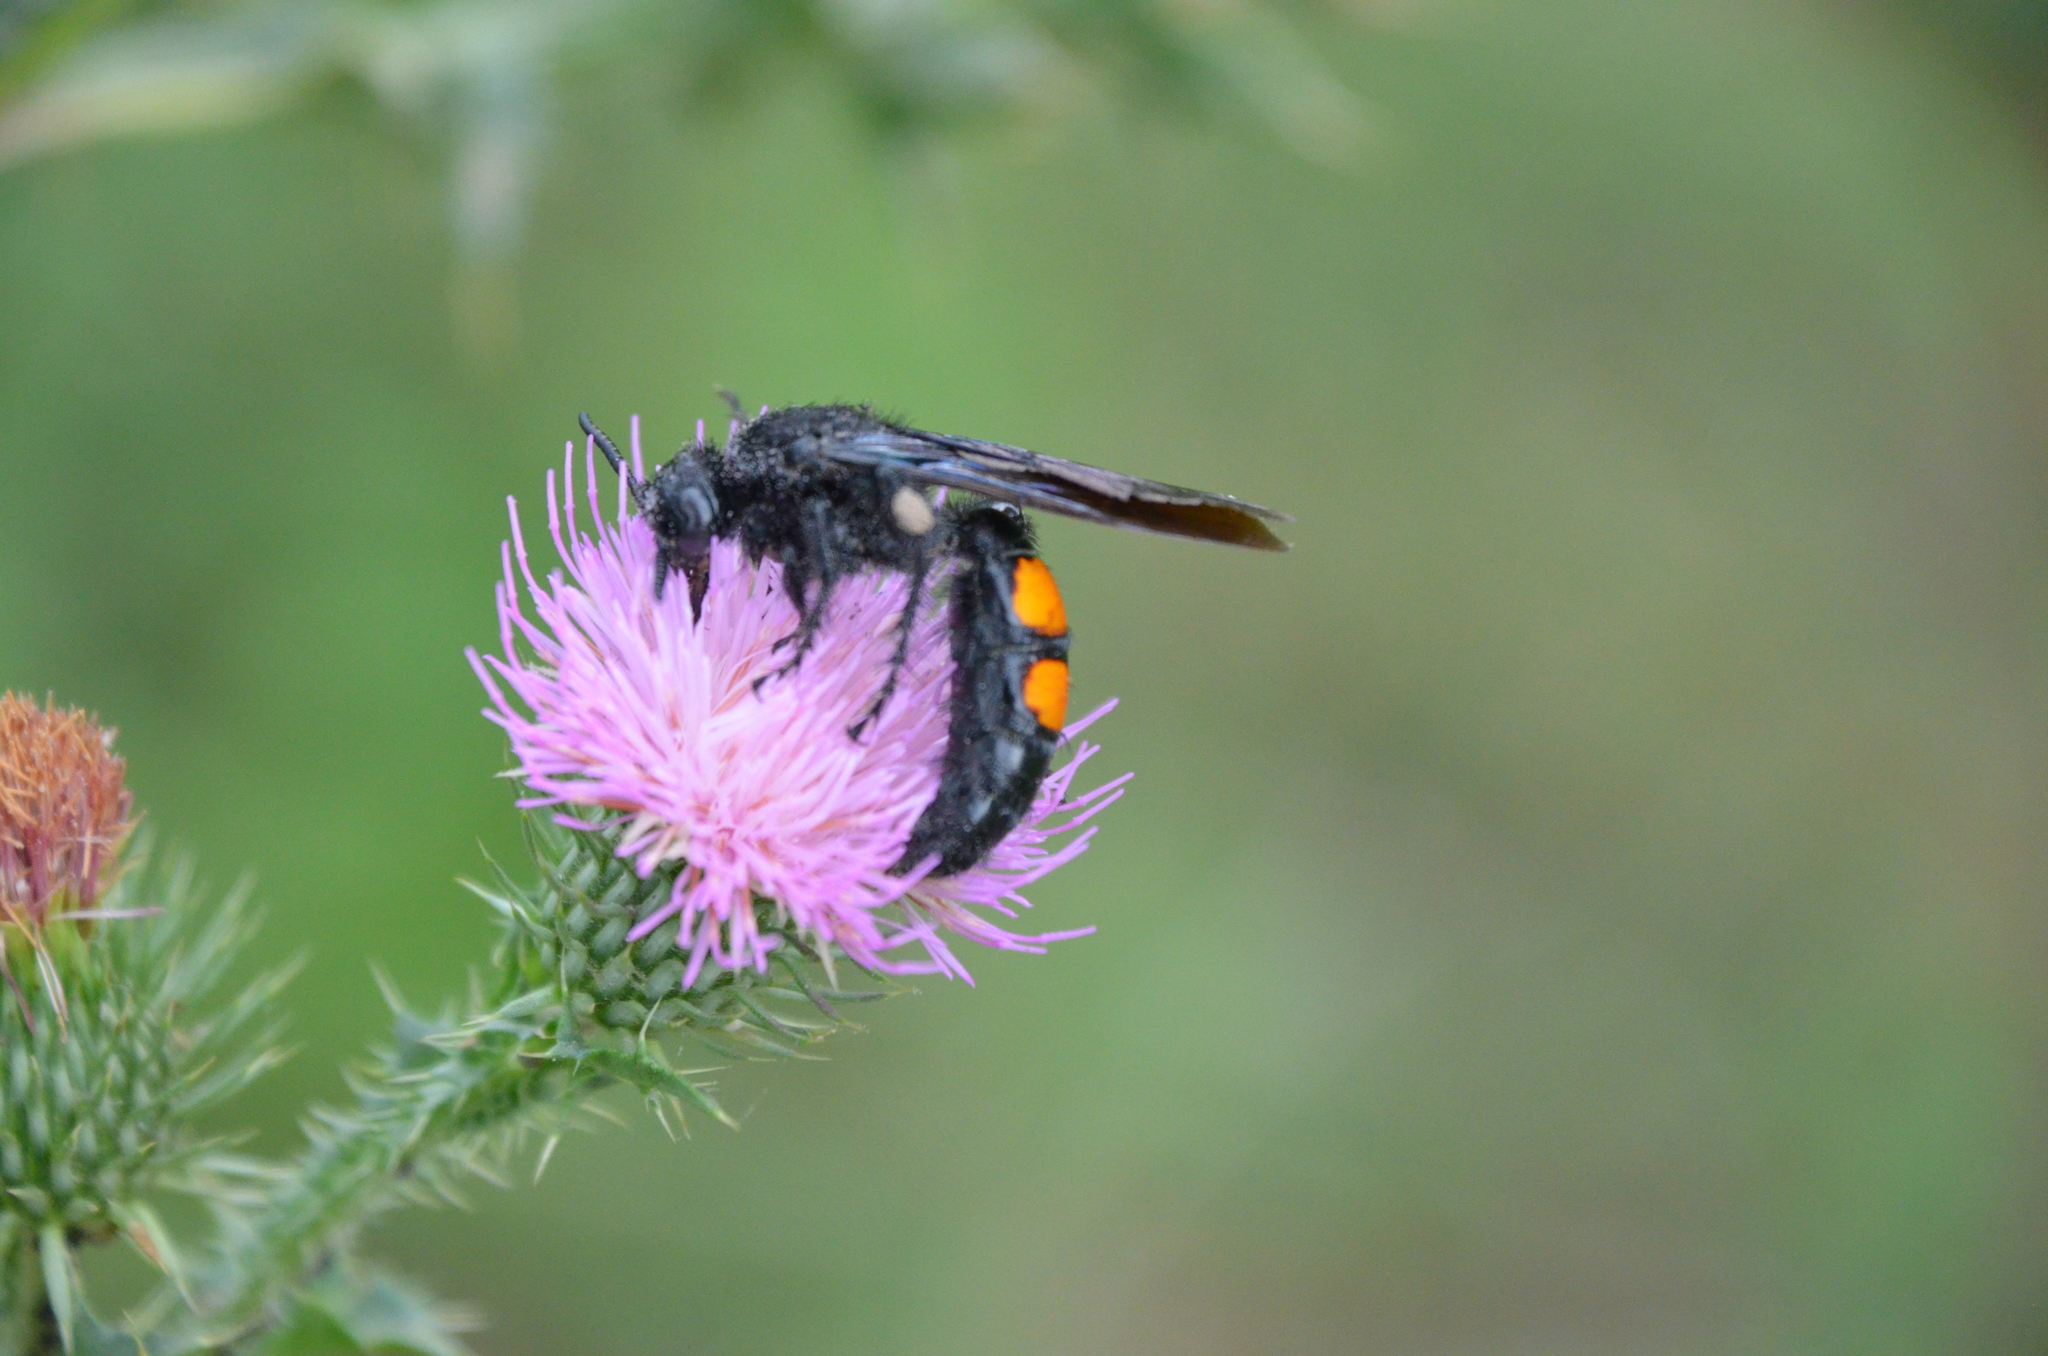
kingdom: Animalia
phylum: Arthropoda
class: Insecta
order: Hymenoptera
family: Scoliidae
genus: Pygodasis
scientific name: Pygodasis
